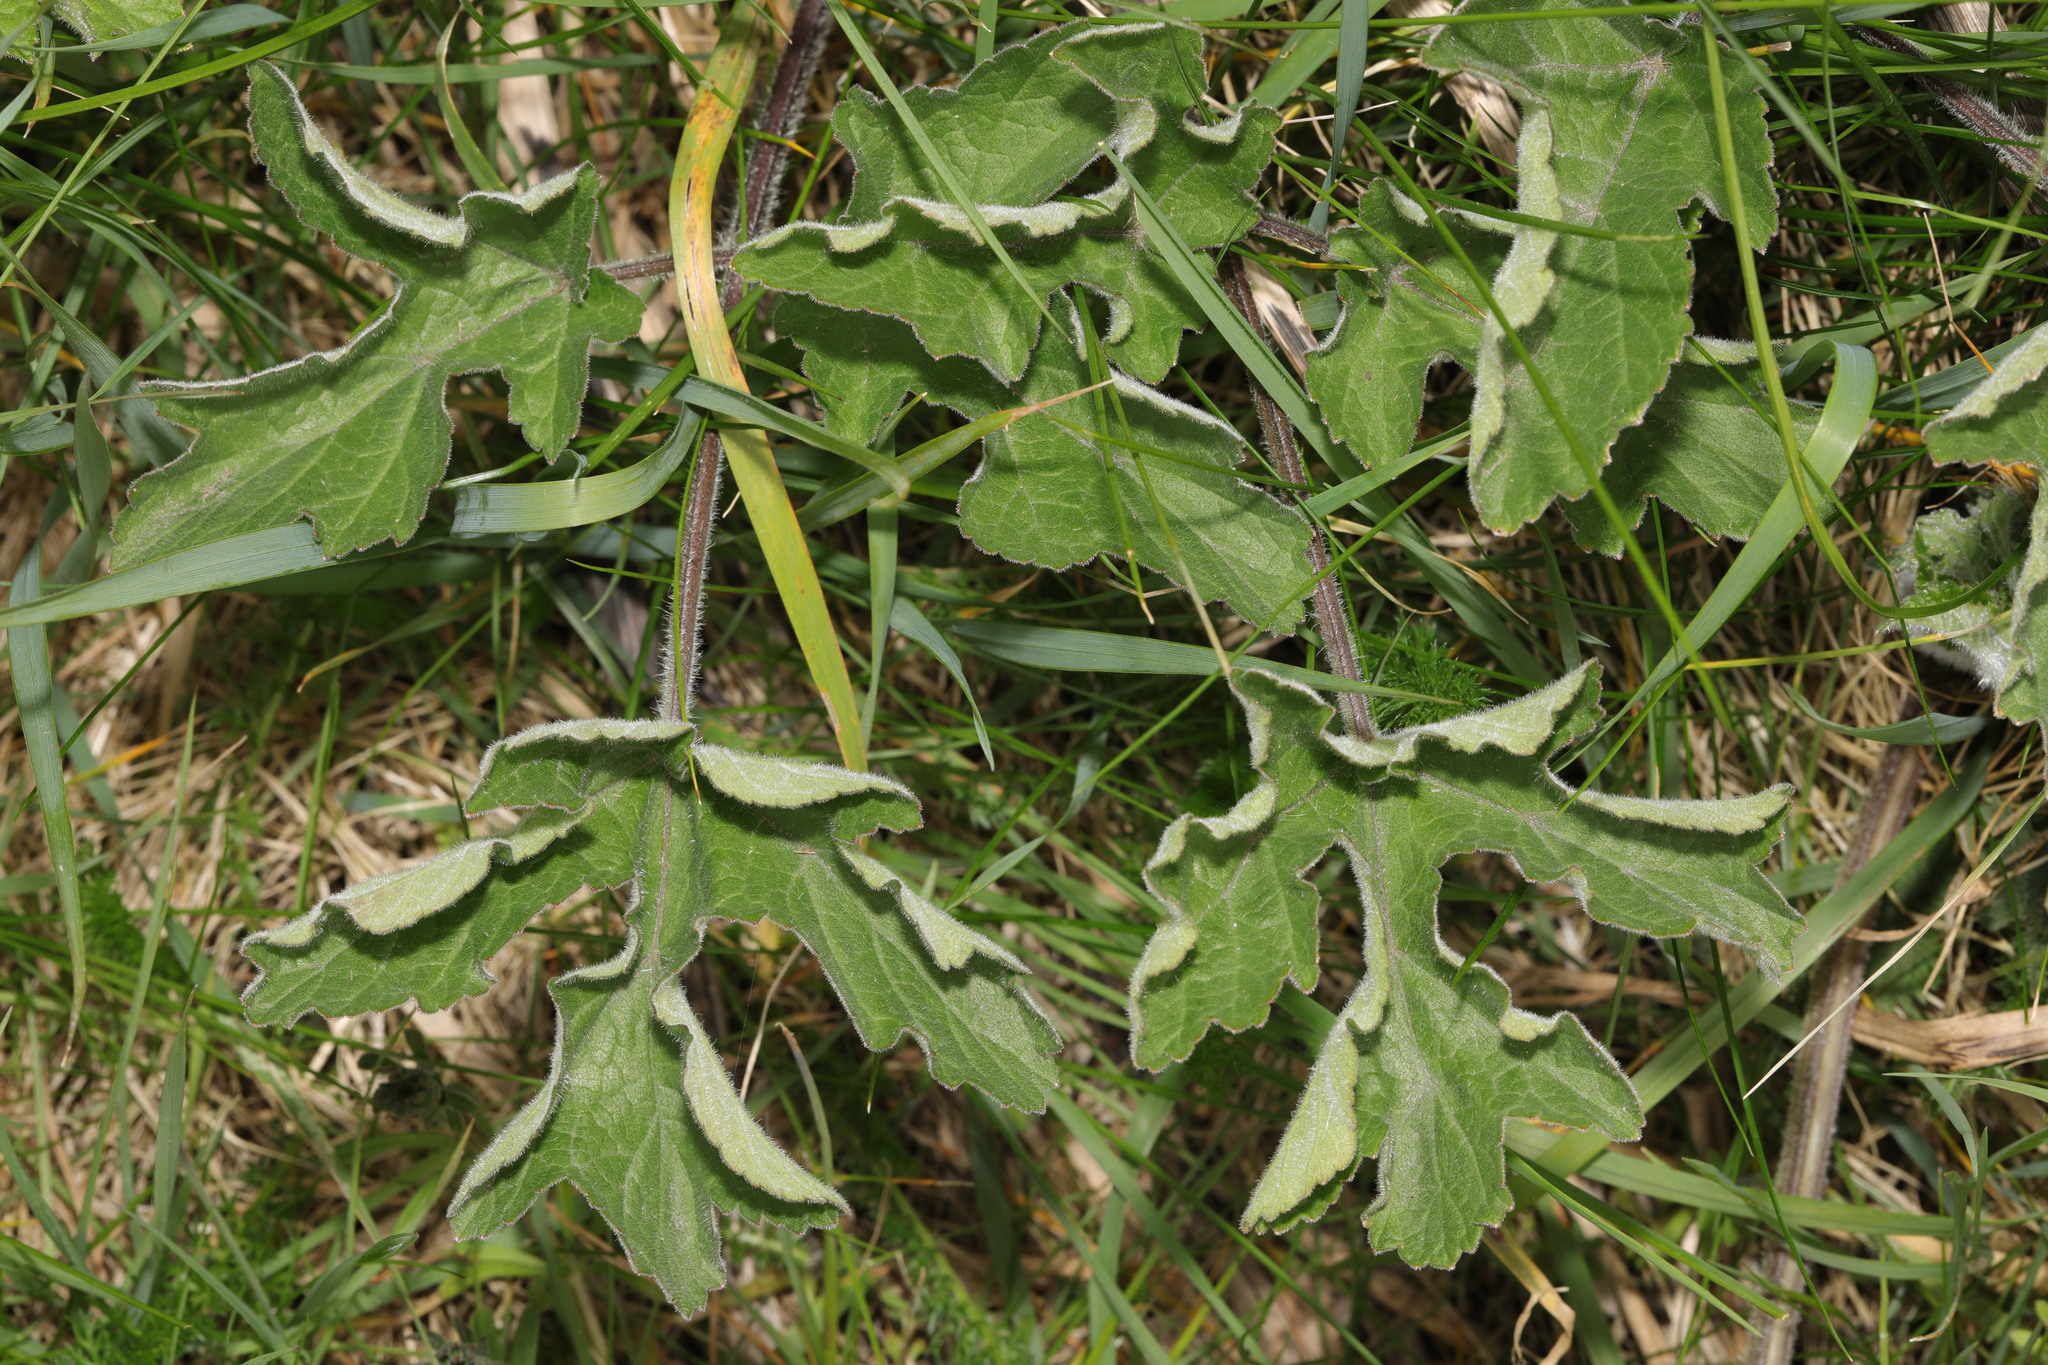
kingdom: Plantae
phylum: Tracheophyta
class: Magnoliopsida
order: Apiales
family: Apiaceae
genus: Heracleum
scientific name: Heracleum sphondylium
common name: Hogweed
